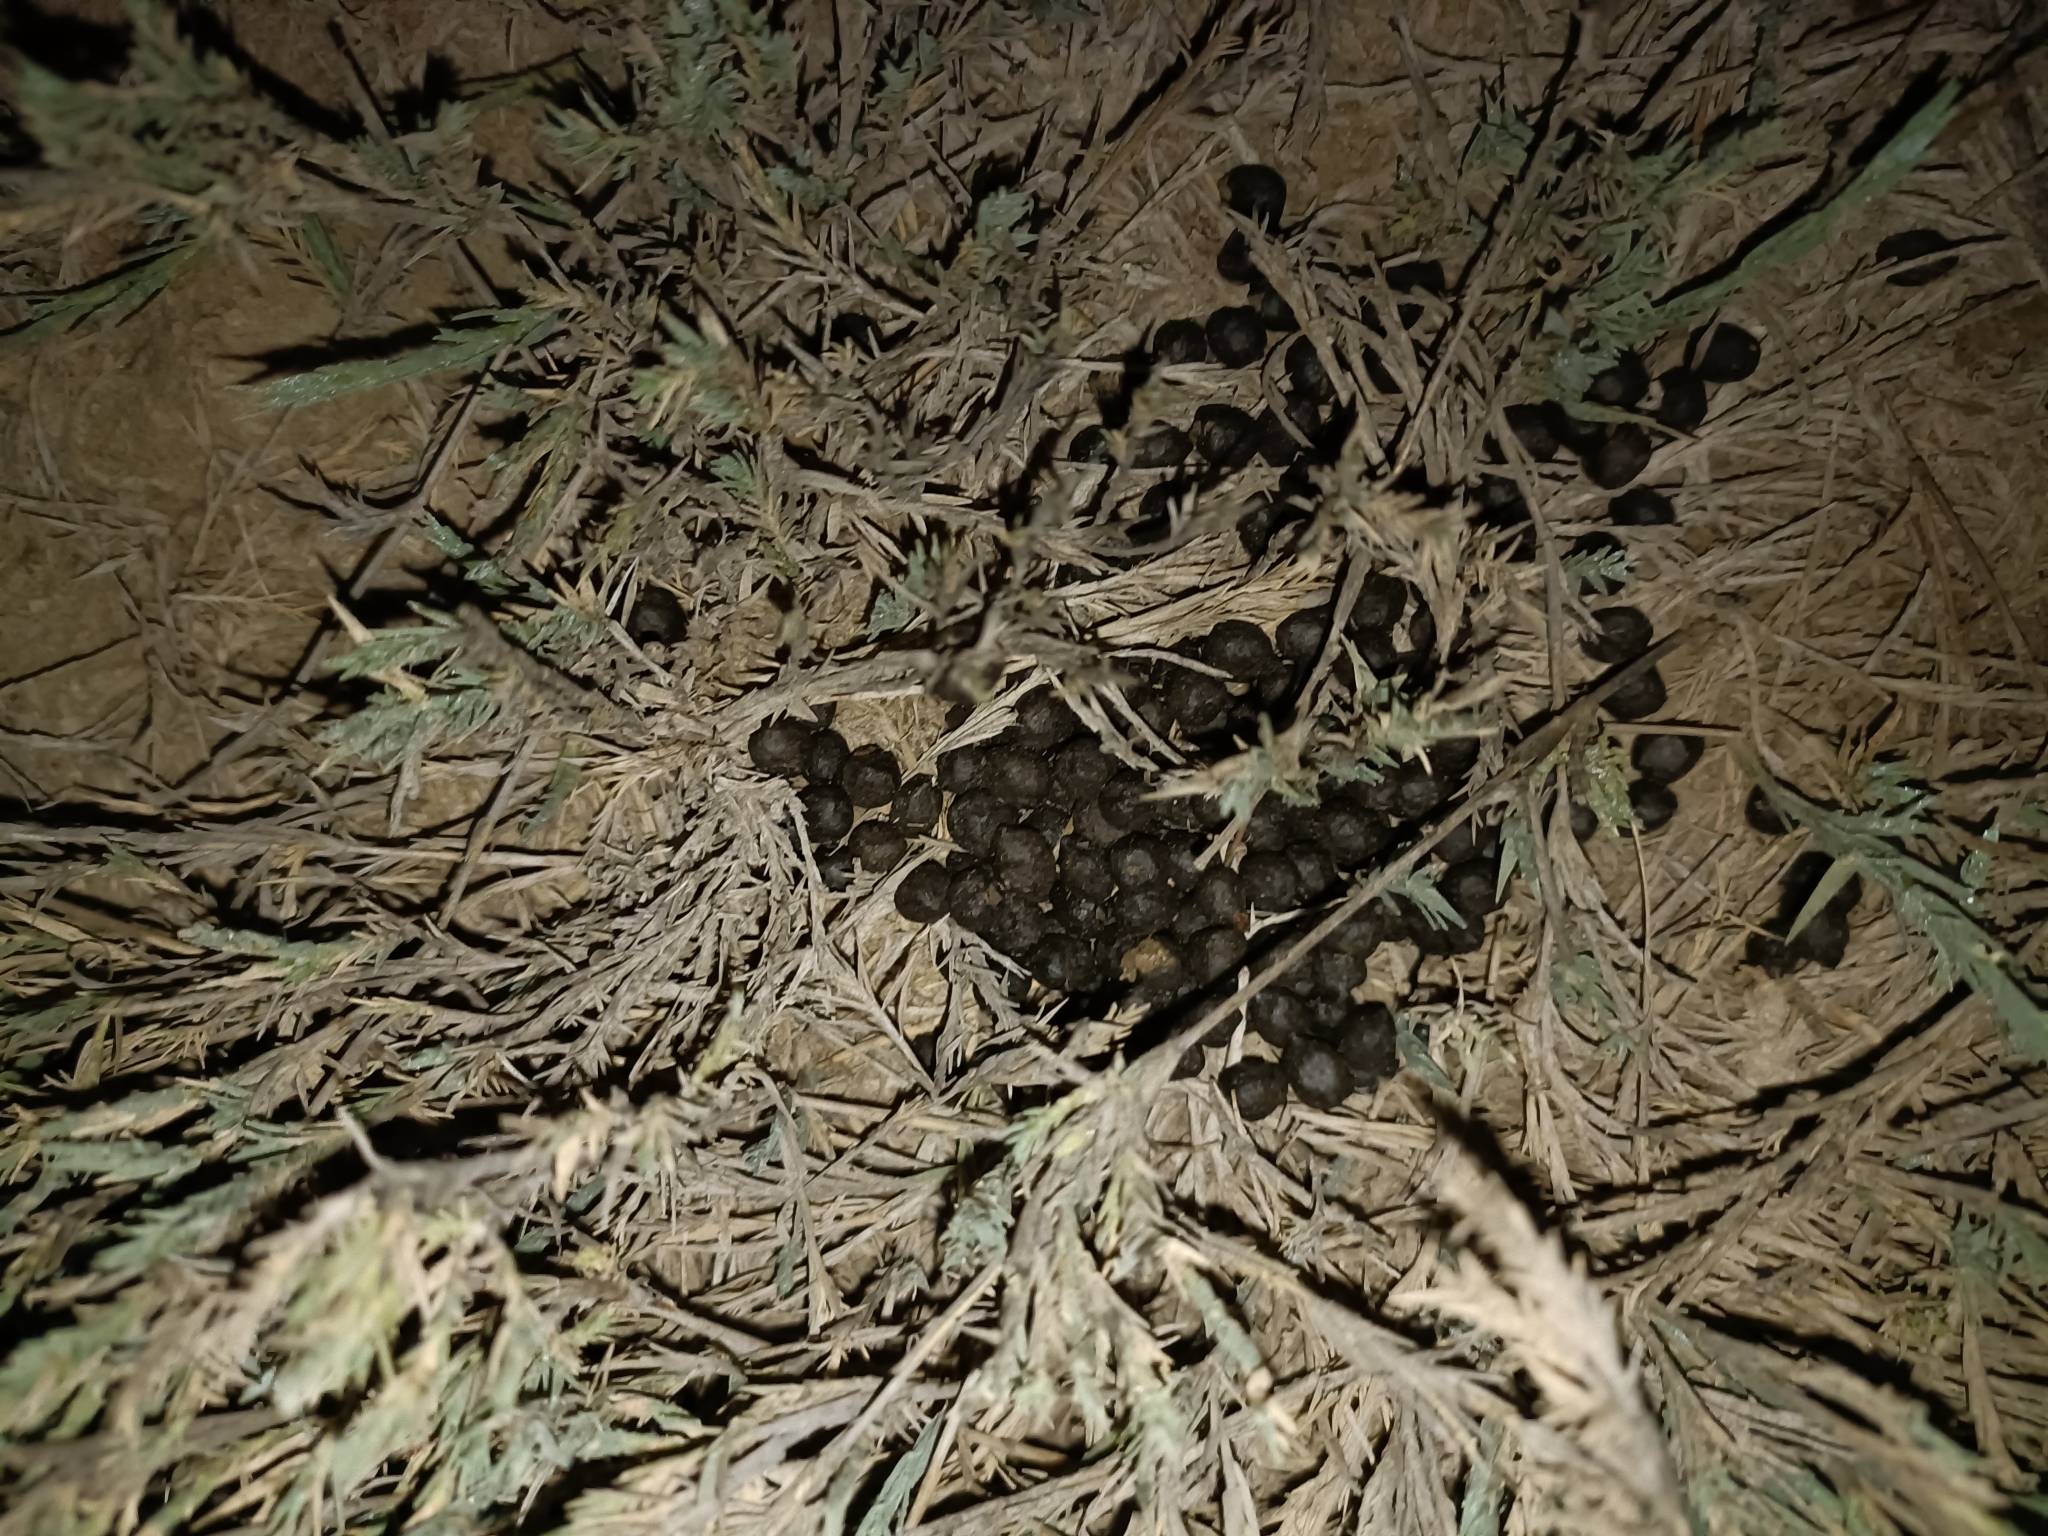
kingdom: Animalia
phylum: Chordata
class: Mammalia
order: Artiodactyla
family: Bovidae
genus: Gazella
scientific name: Gazella bennettii
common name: Indian gazelle
